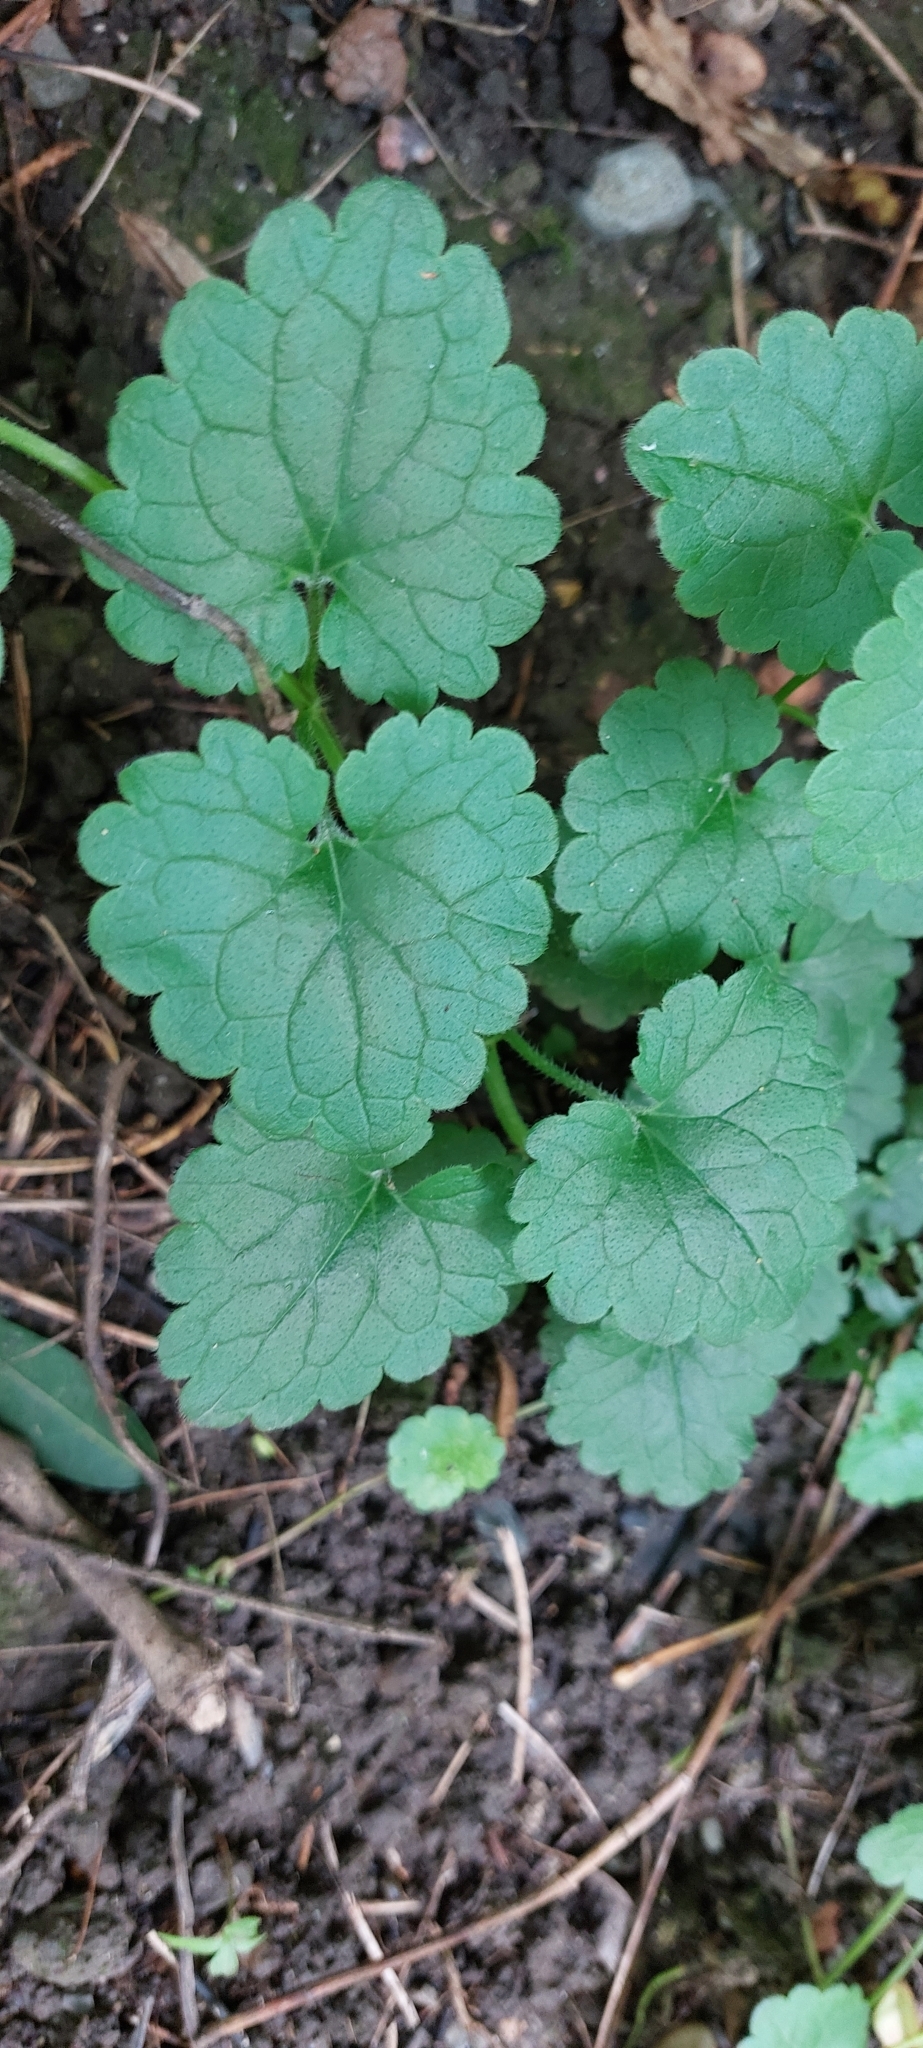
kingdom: Plantae
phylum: Tracheophyta
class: Magnoliopsida
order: Lamiales
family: Lamiaceae
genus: Glechoma
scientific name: Glechoma hederacea
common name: Ground ivy
